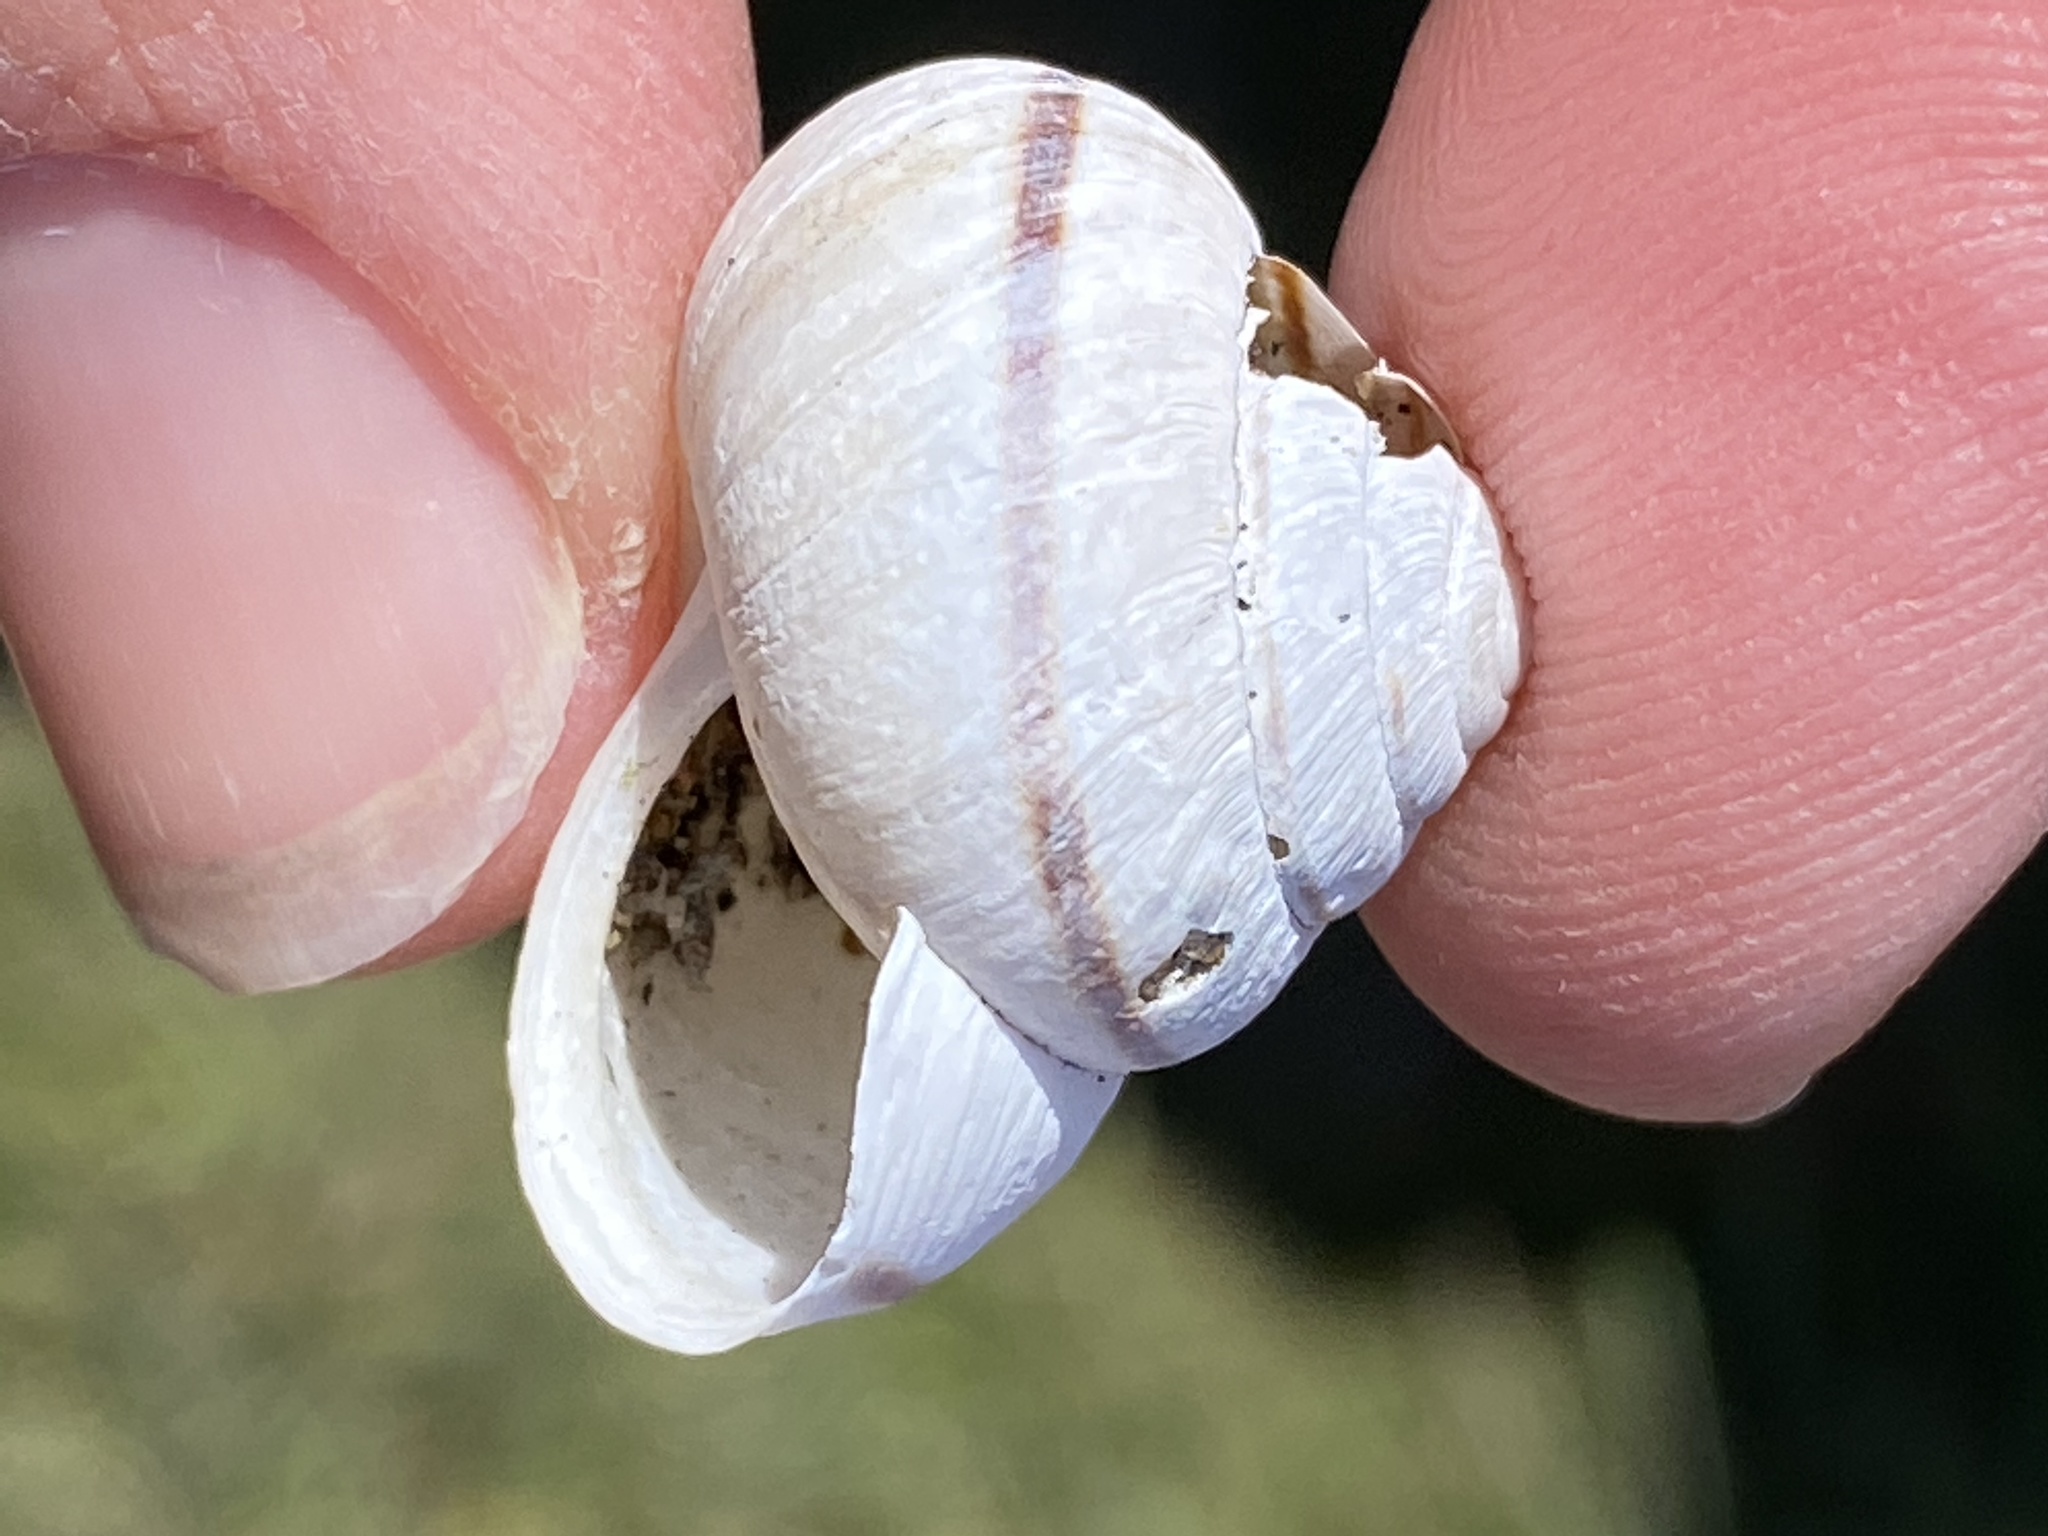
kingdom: Animalia
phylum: Mollusca
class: Gastropoda
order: Stylommatophora
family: Xanthonychidae
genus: Helminthoglypta
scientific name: Helminthoglypta stiversiana
